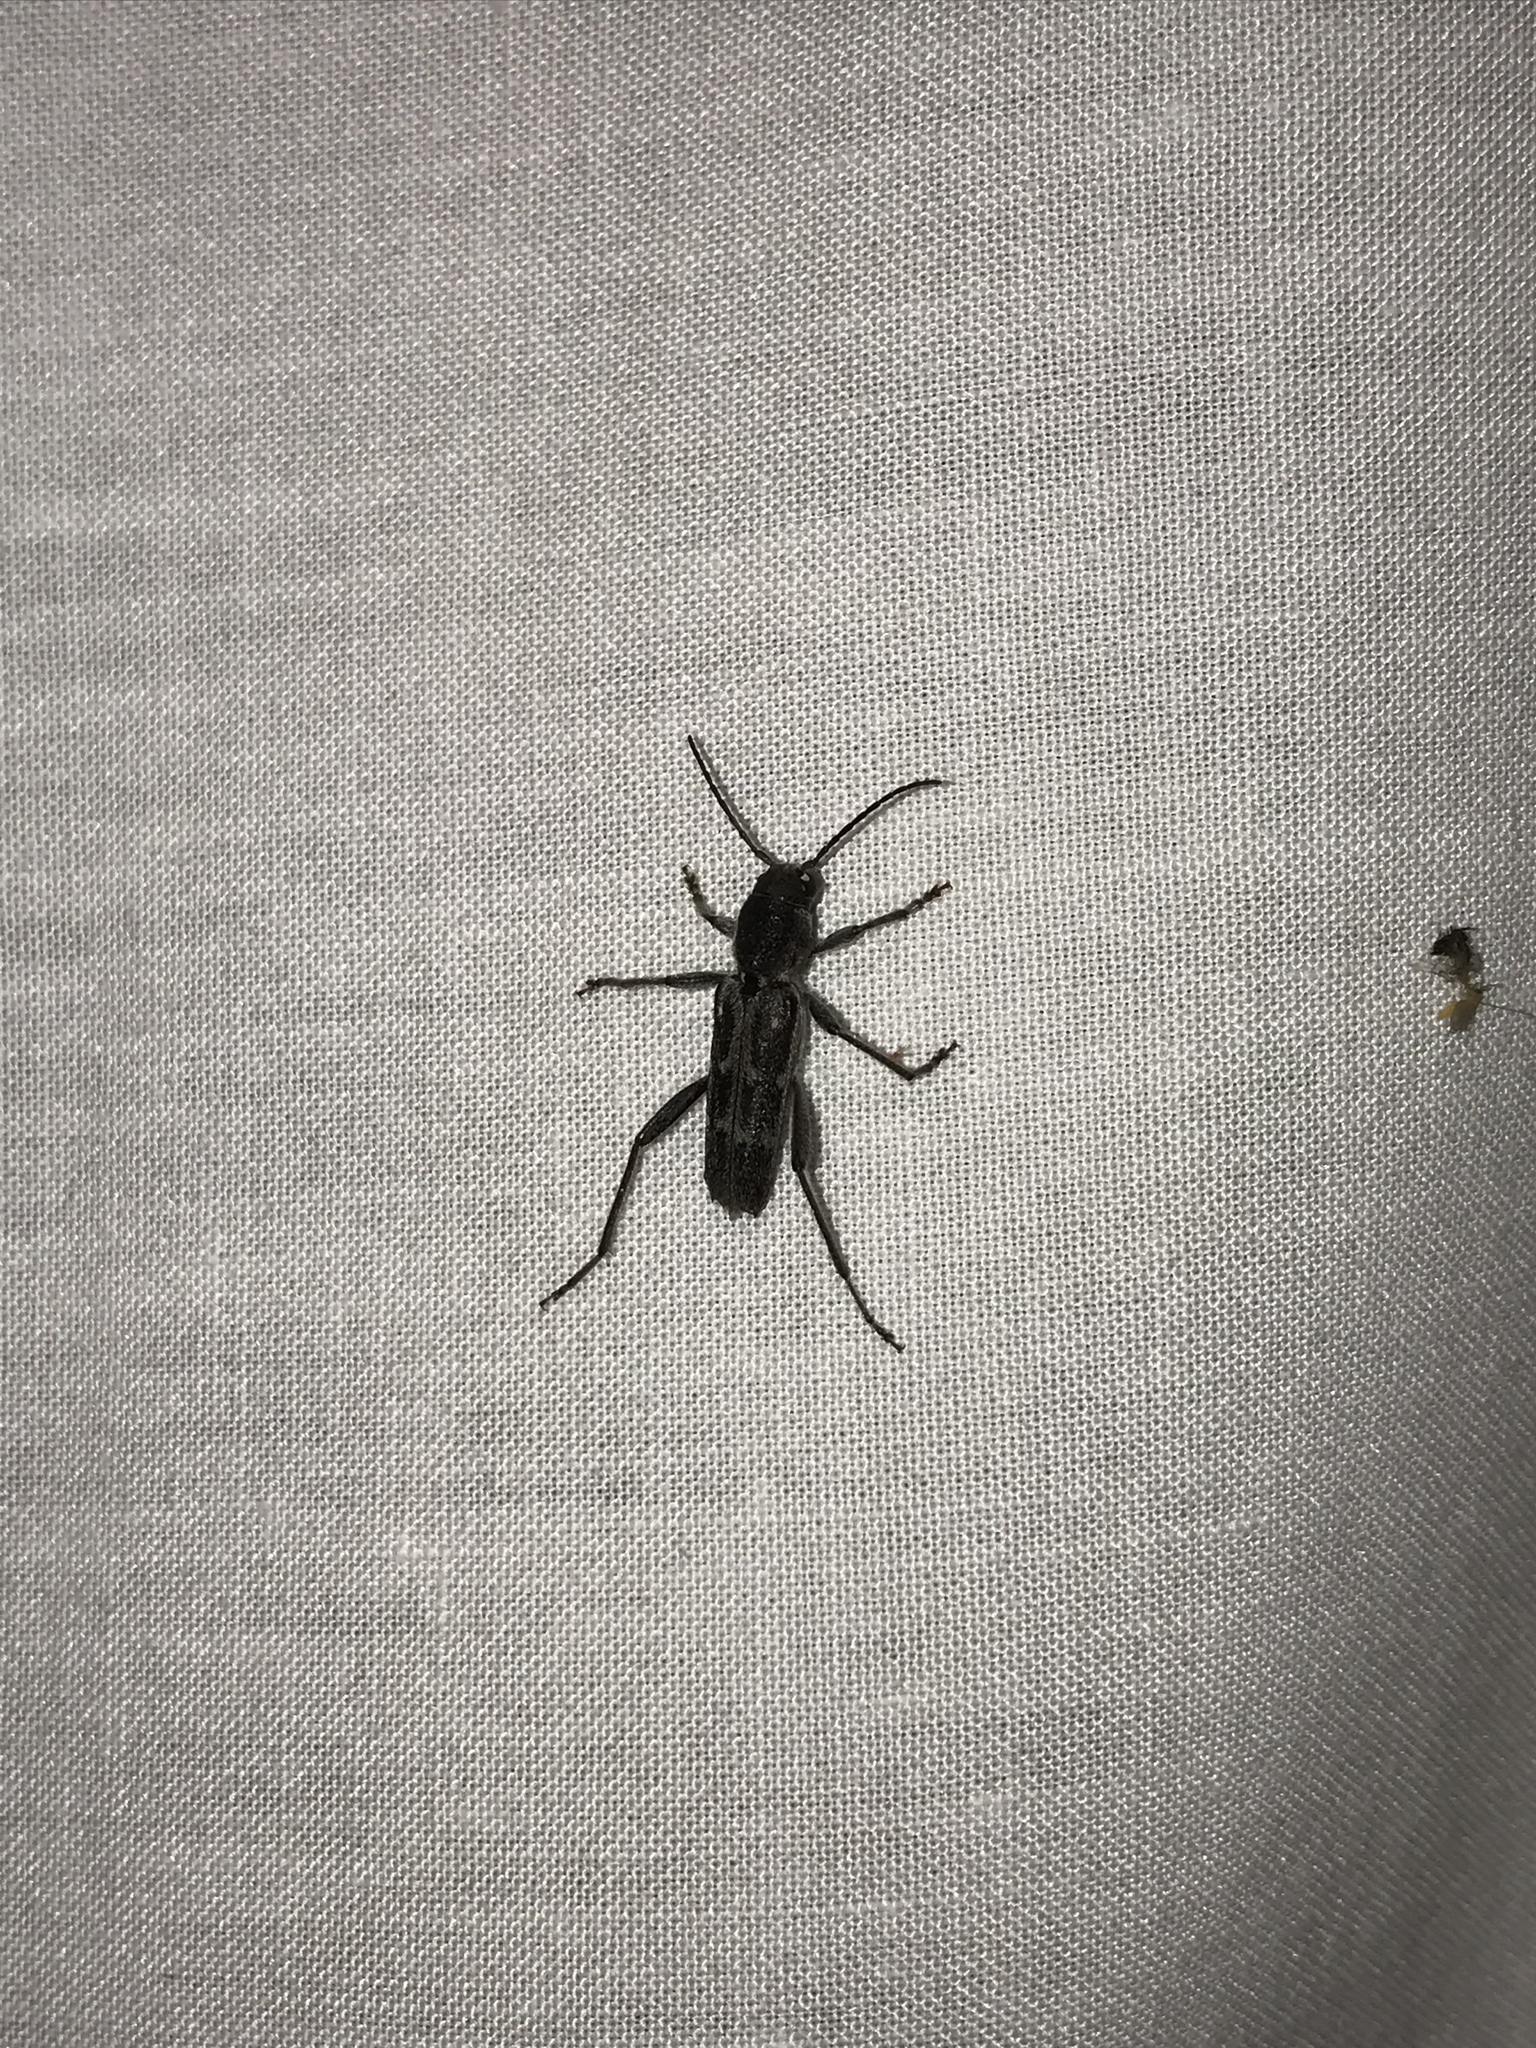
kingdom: Animalia
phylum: Arthropoda
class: Insecta
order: Coleoptera
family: Cerambycidae
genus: Xylotrechus
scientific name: Xylotrechus sagittatus
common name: Arrowhead borer
